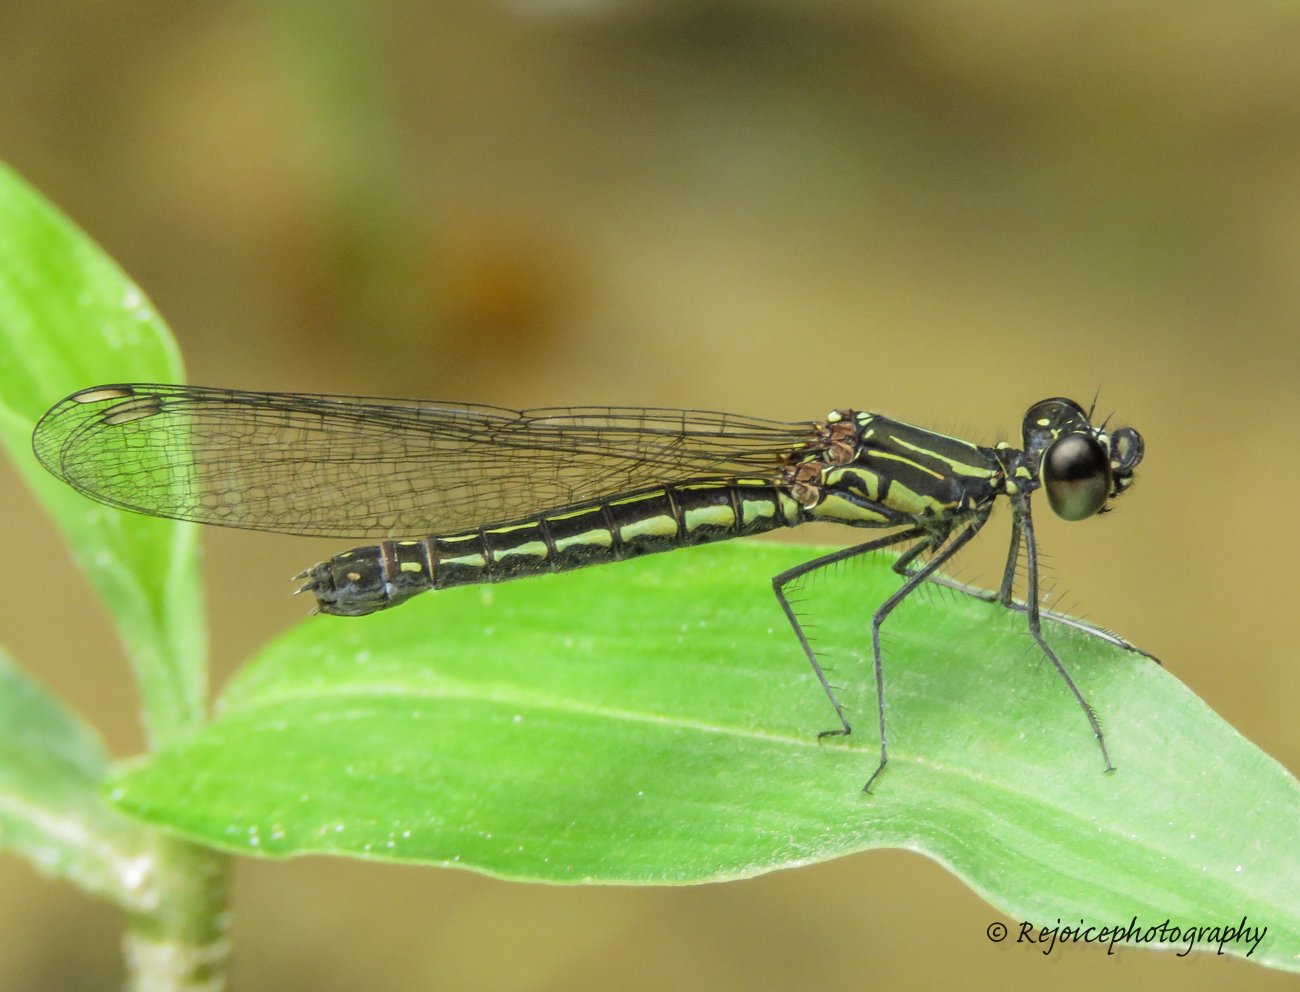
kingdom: Animalia
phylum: Arthropoda
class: Insecta
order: Odonata
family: Chlorocyphidae
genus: Libellago
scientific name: Libellago lineata
